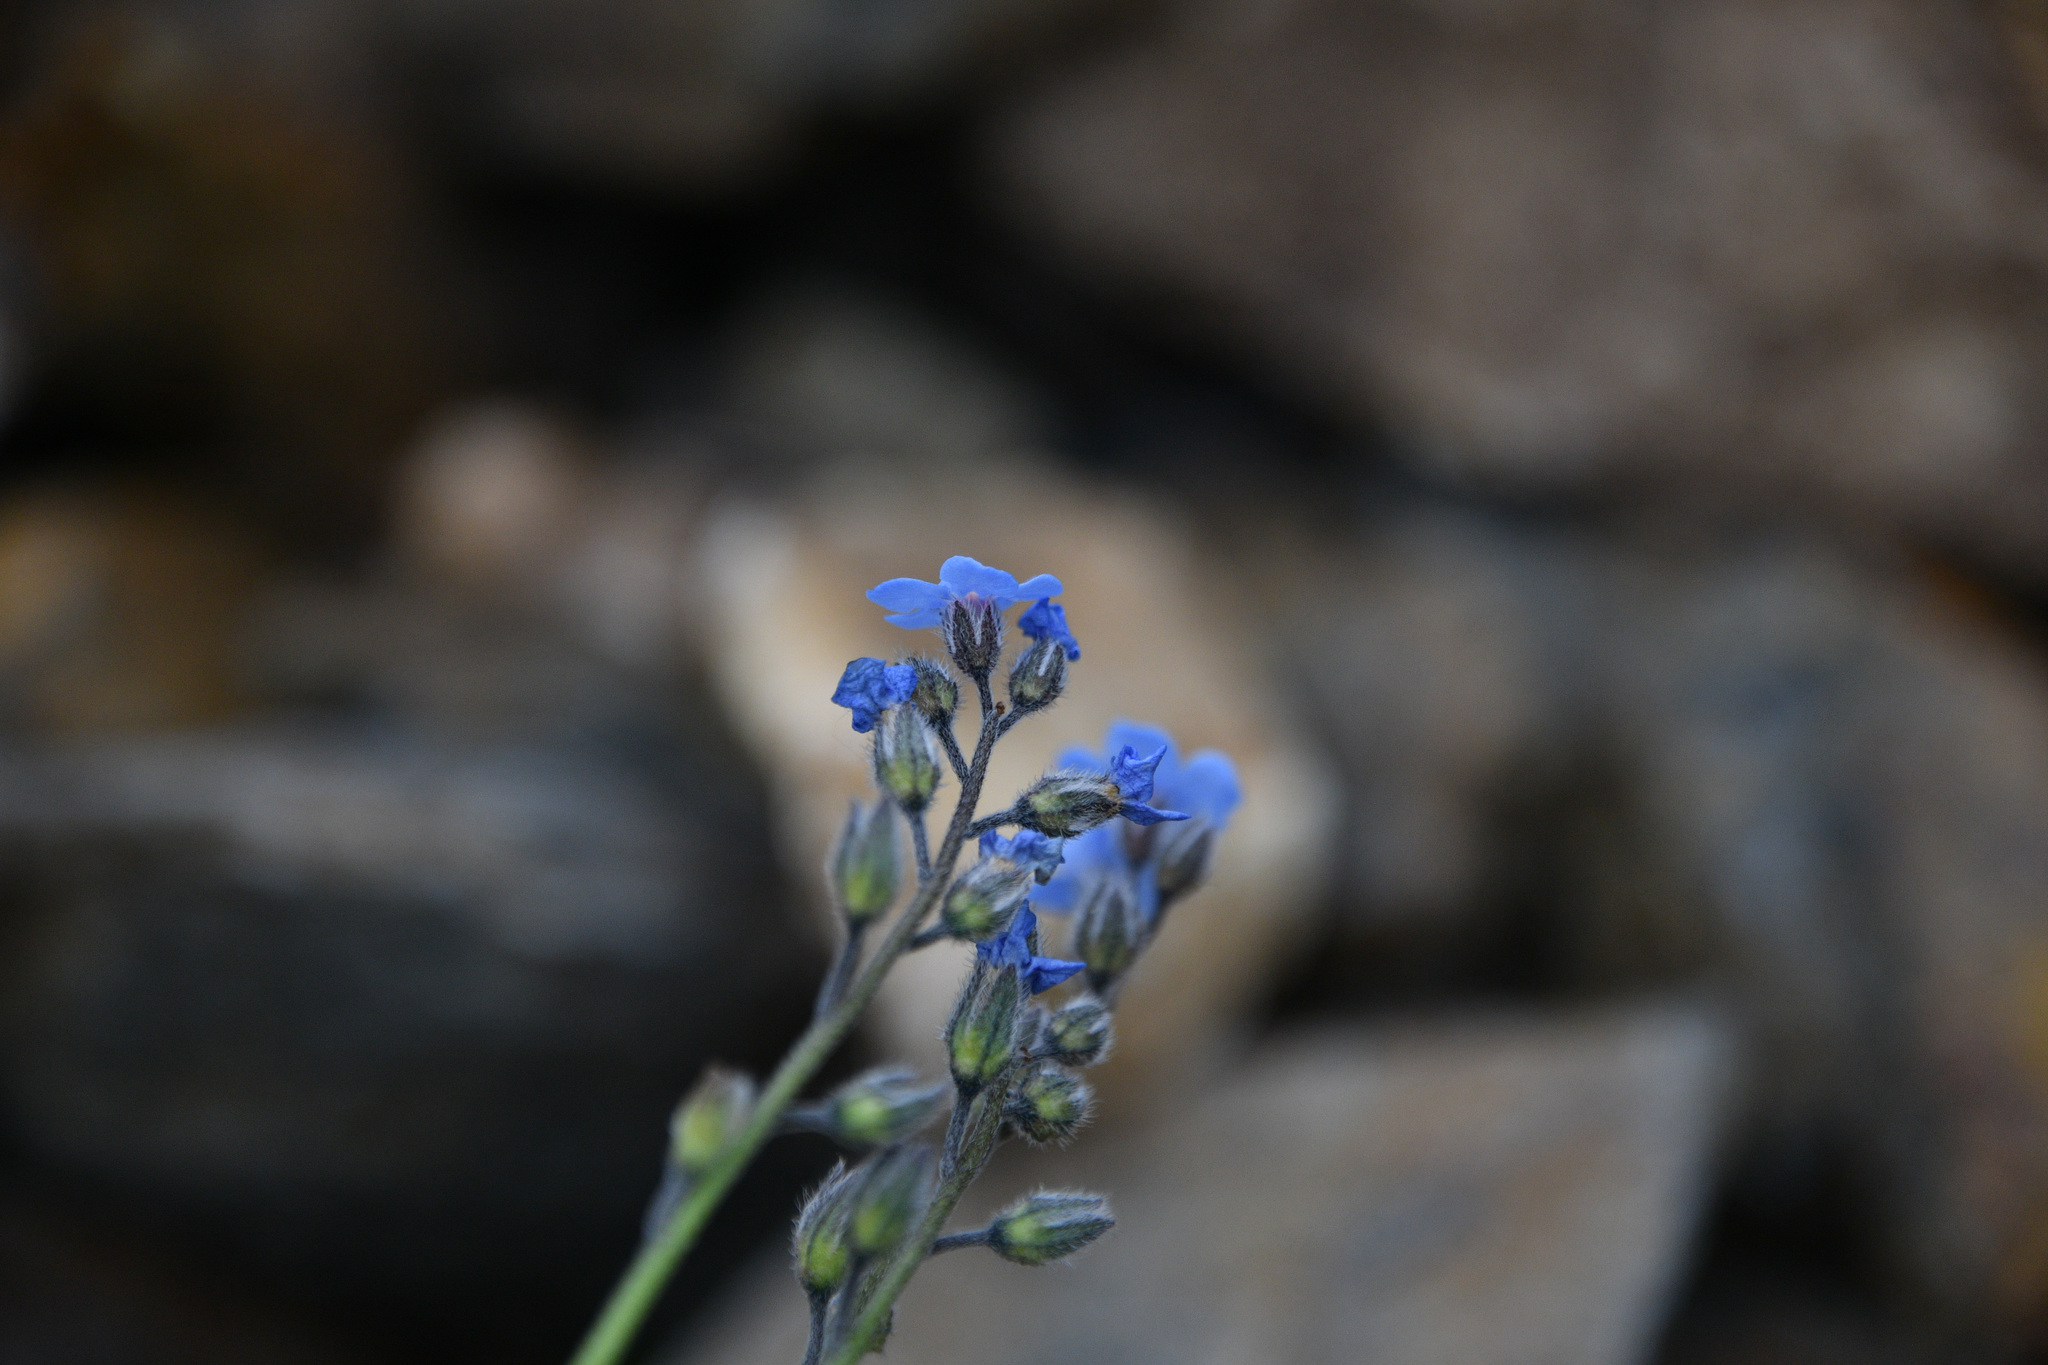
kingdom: Plantae
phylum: Tracheophyta
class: Magnoliopsida
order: Boraginales
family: Boraginaceae
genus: Myosotis
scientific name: Myosotis asiatica
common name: Asian forget-me-not
